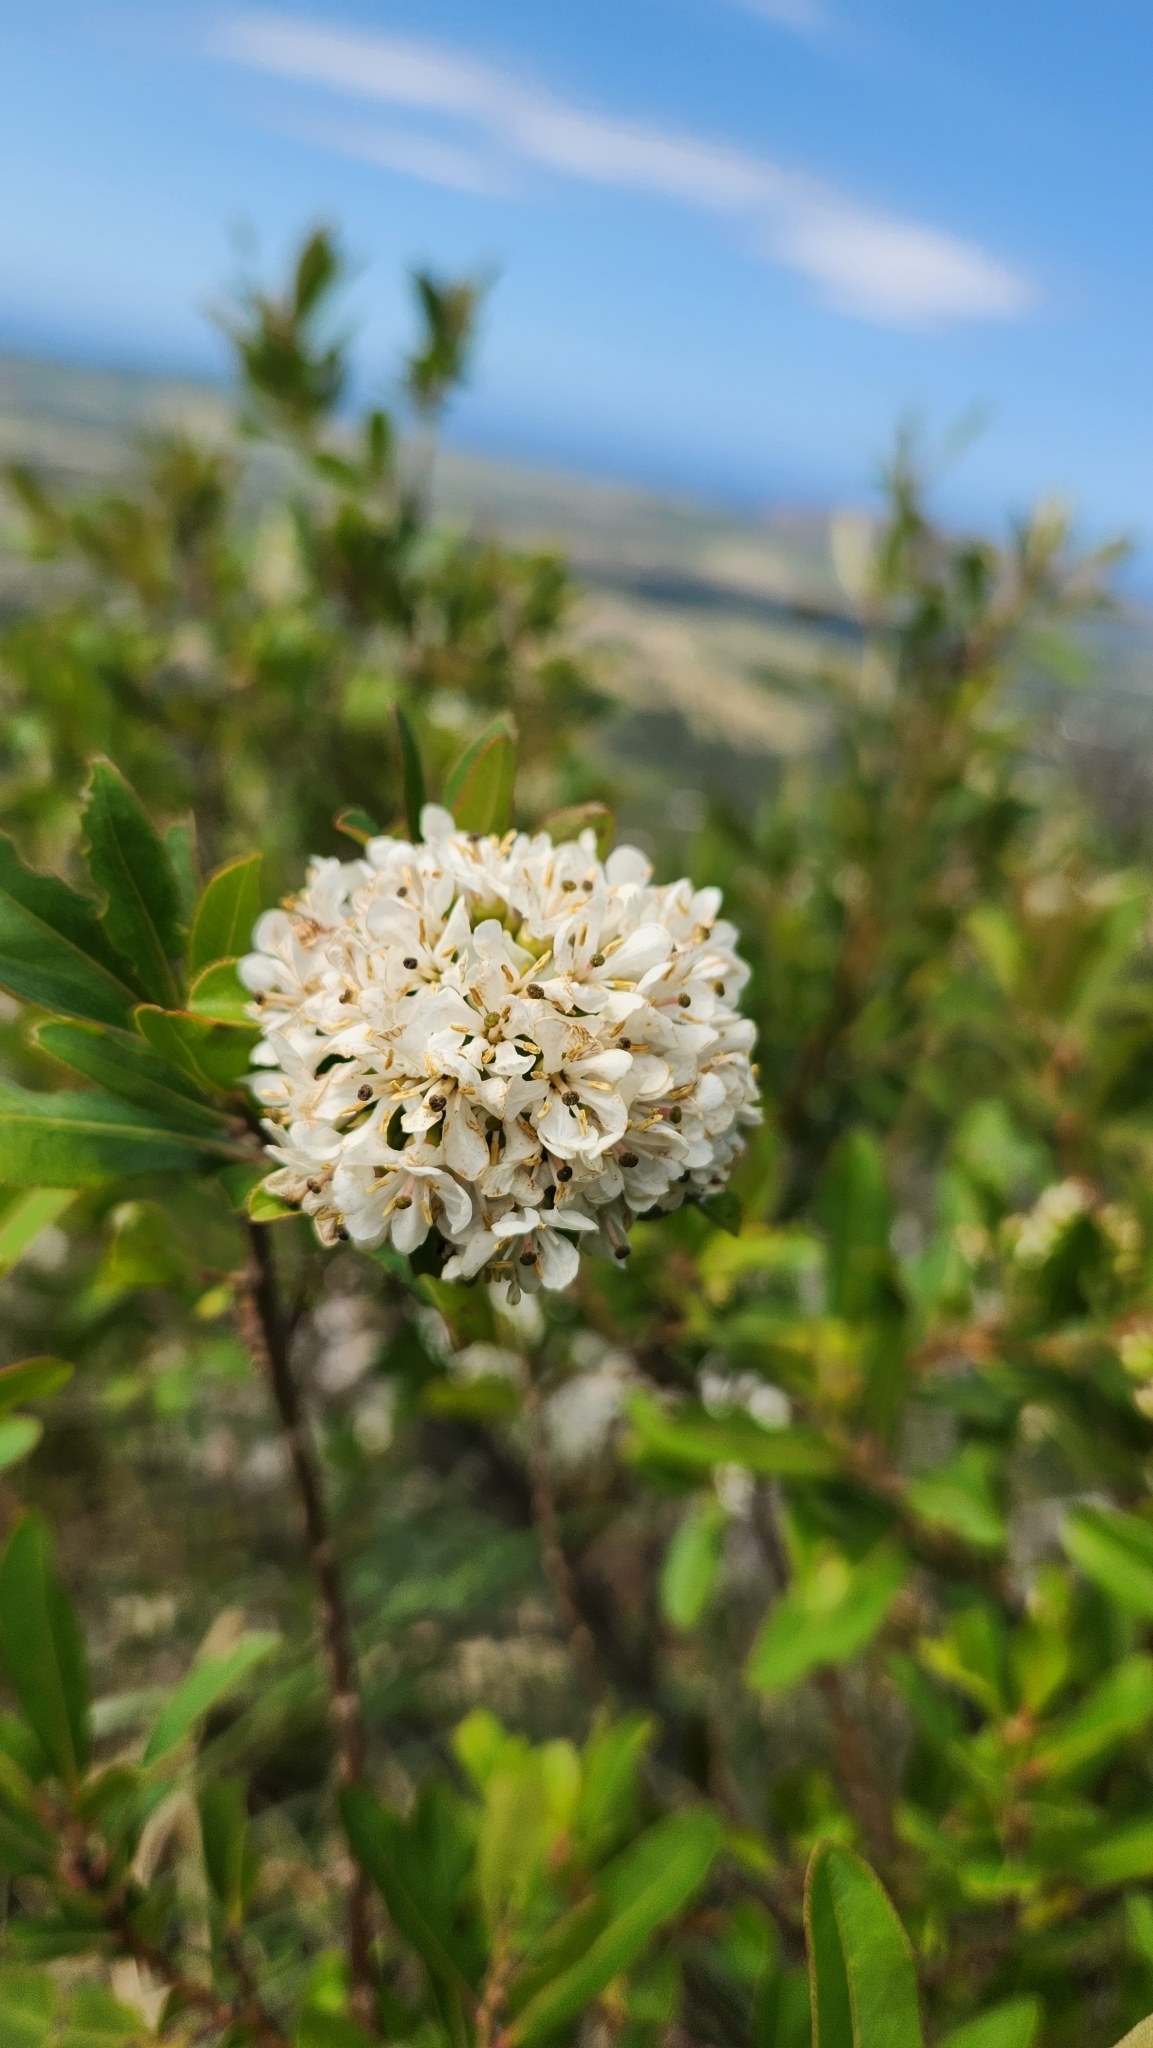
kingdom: Plantae
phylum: Tracheophyta
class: Magnoliopsida
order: Escalloniales
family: Escalloniaceae
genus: Escallonia
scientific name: Escallonia bifida
